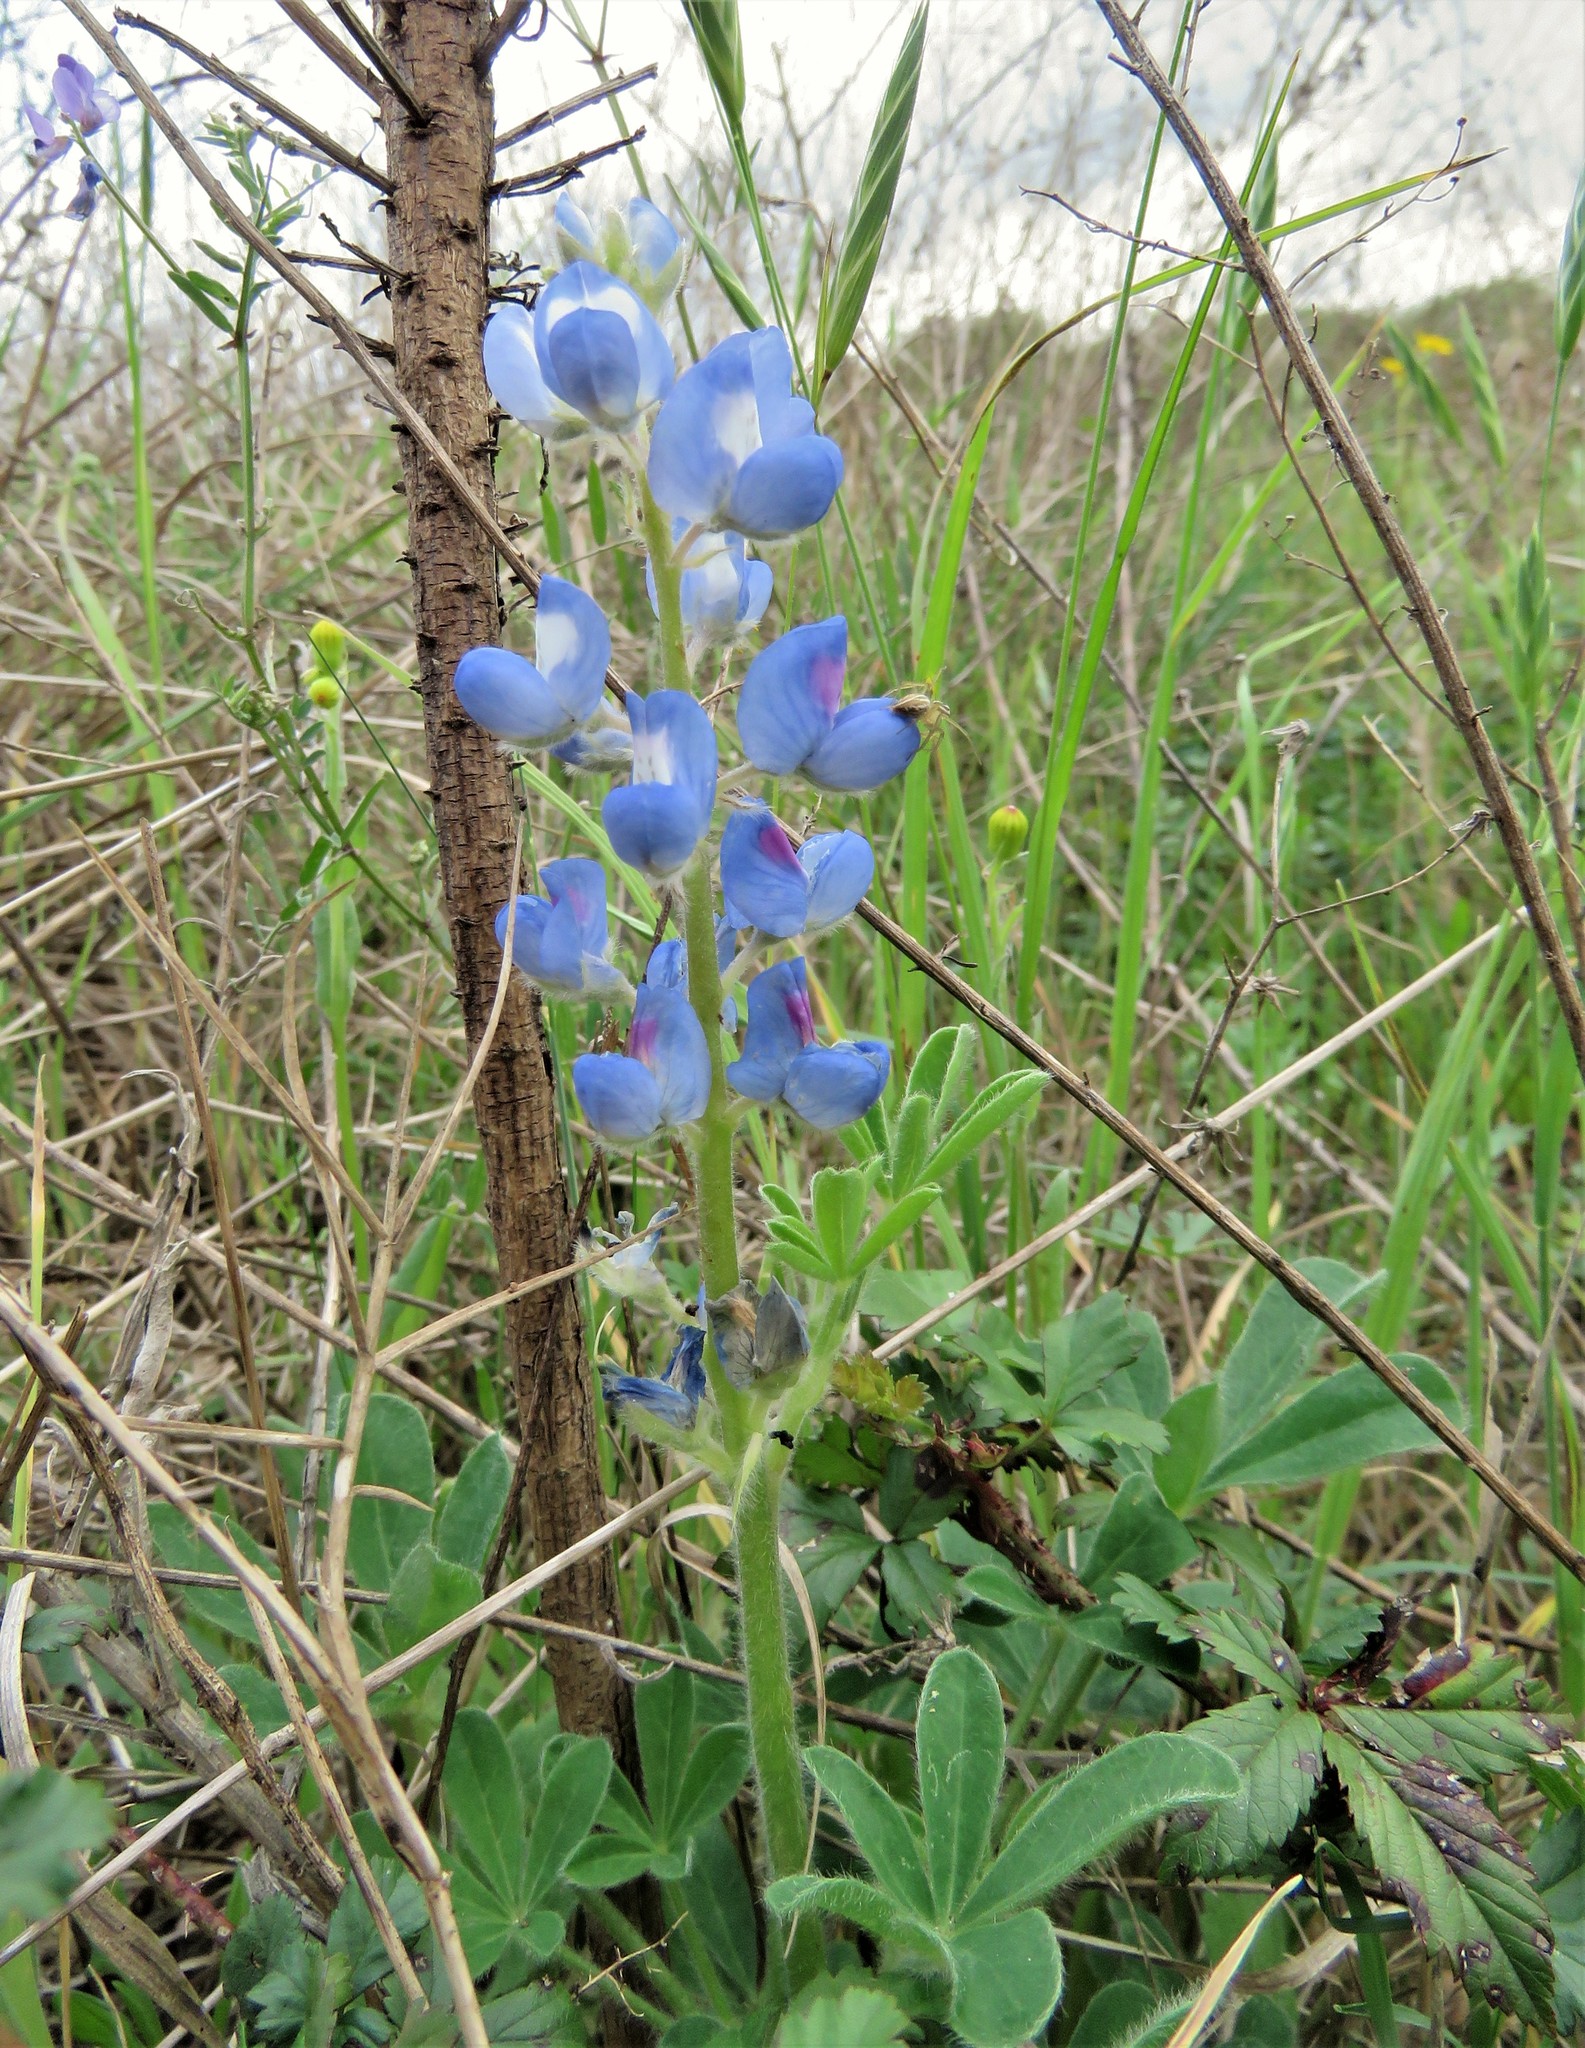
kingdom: Plantae
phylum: Tracheophyta
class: Magnoliopsida
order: Fabales
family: Fabaceae
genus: Lupinus
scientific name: Lupinus subcarnosus
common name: Texas bluebonnet
